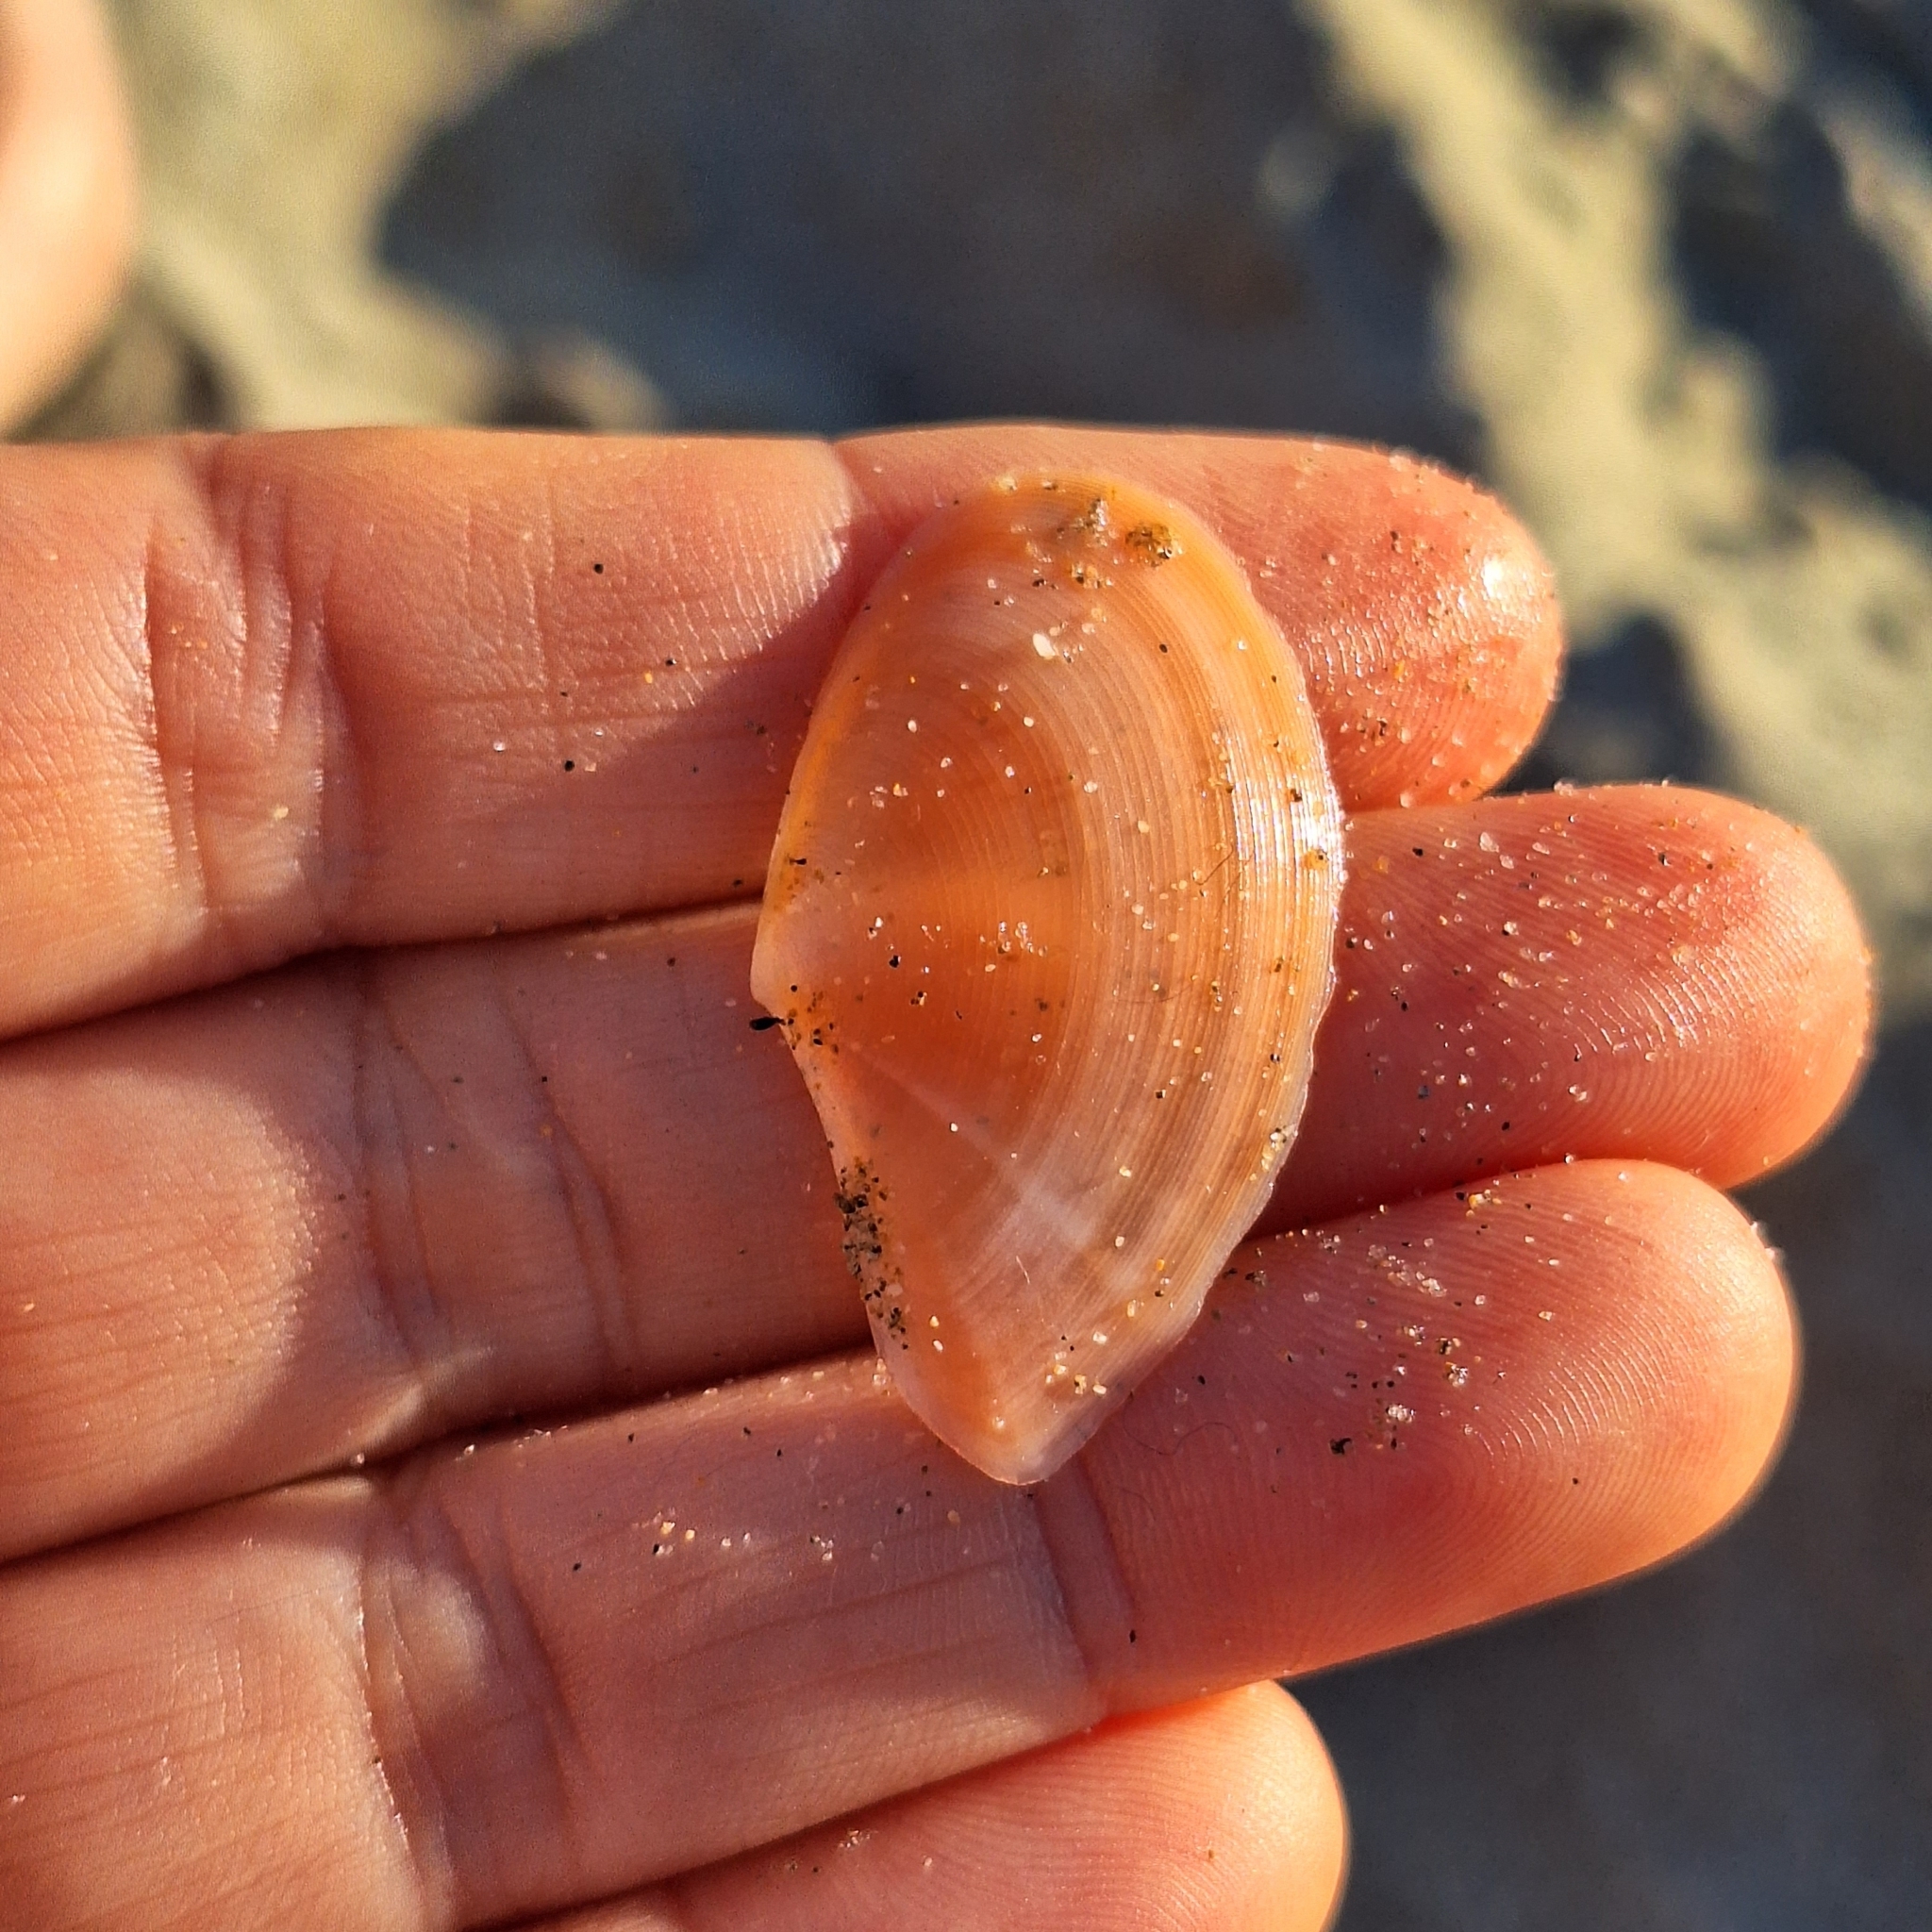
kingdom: Animalia
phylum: Mollusca
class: Bivalvia
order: Cardiida
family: Tellinidae
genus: Bosemprella
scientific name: Bosemprella incarnata
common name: Red tellin
